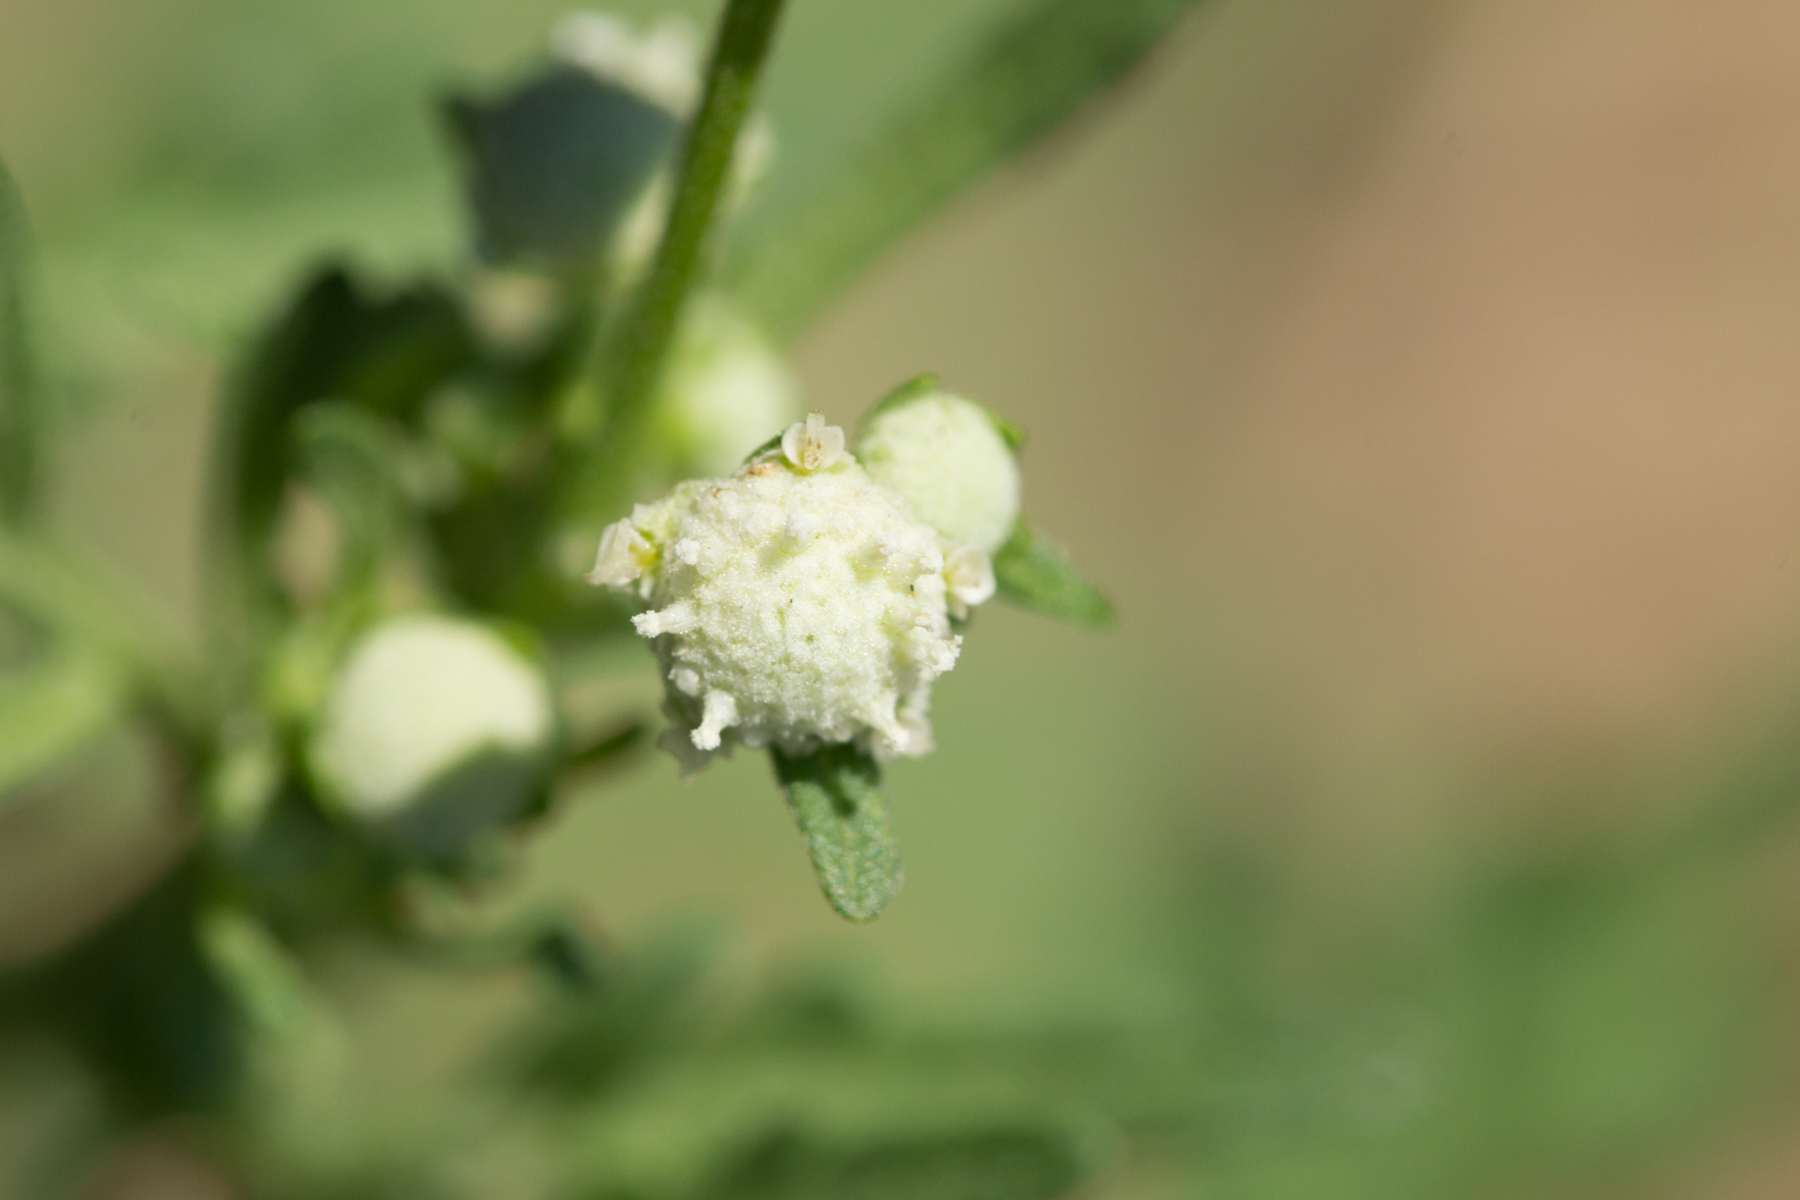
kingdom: Plantae
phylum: Tracheophyta
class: Magnoliopsida
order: Asterales
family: Asteraceae
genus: Parthenium
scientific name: Parthenium hysterophorus
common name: Santa maria feverfew
